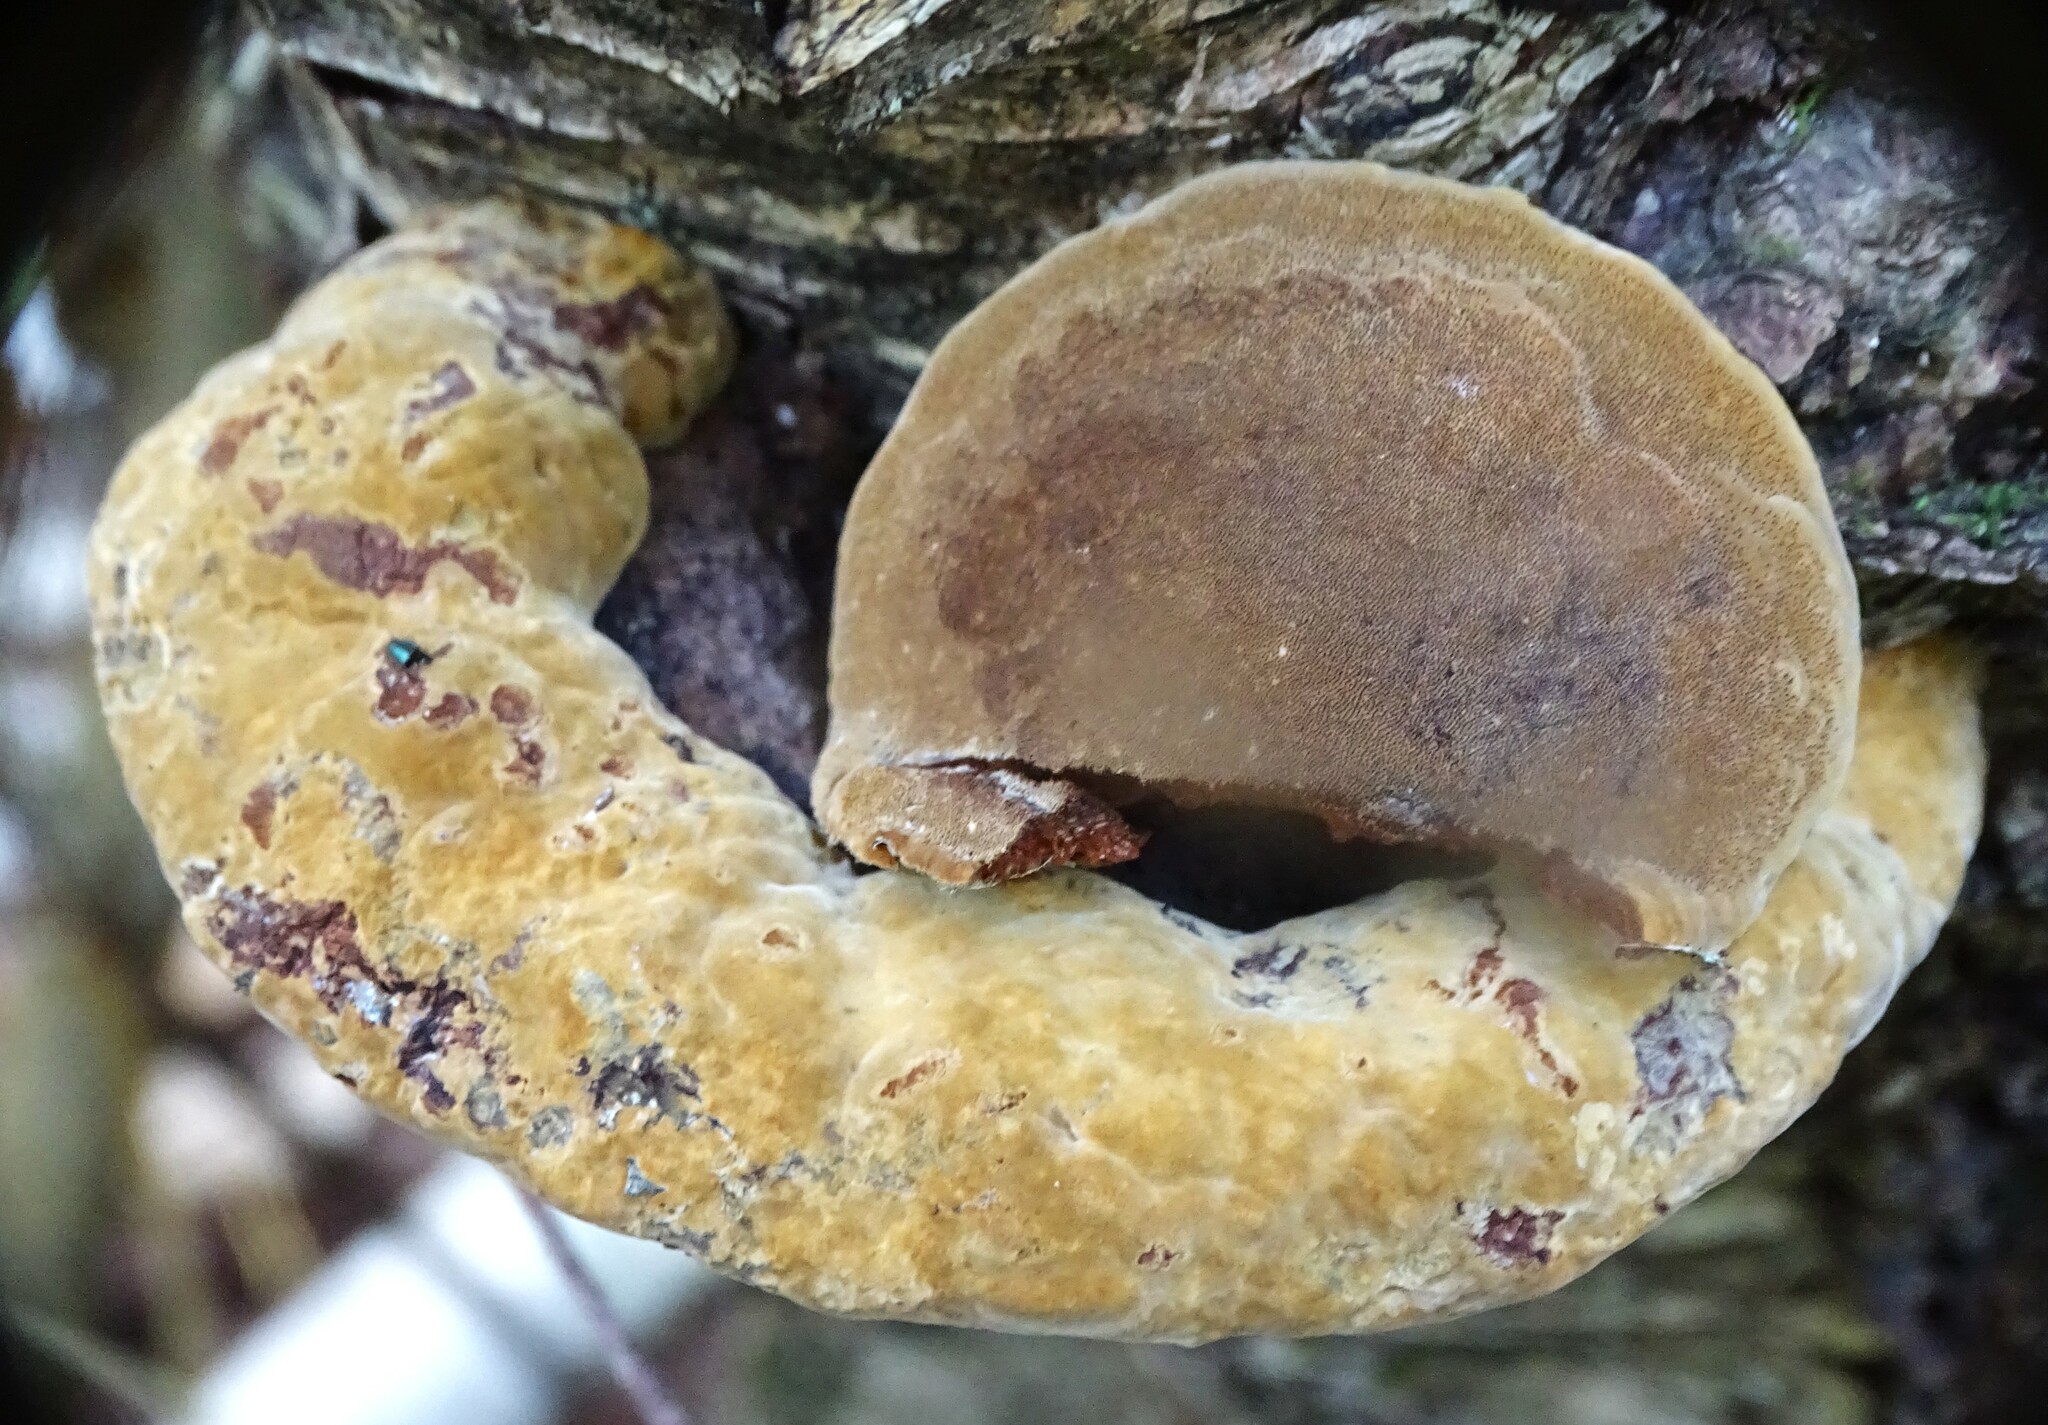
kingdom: Fungi
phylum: Basidiomycota
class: Agaricomycetes
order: Hymenochaetales
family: Hymenochaetaceae
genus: Phellinus
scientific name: Phellinus gilvus
